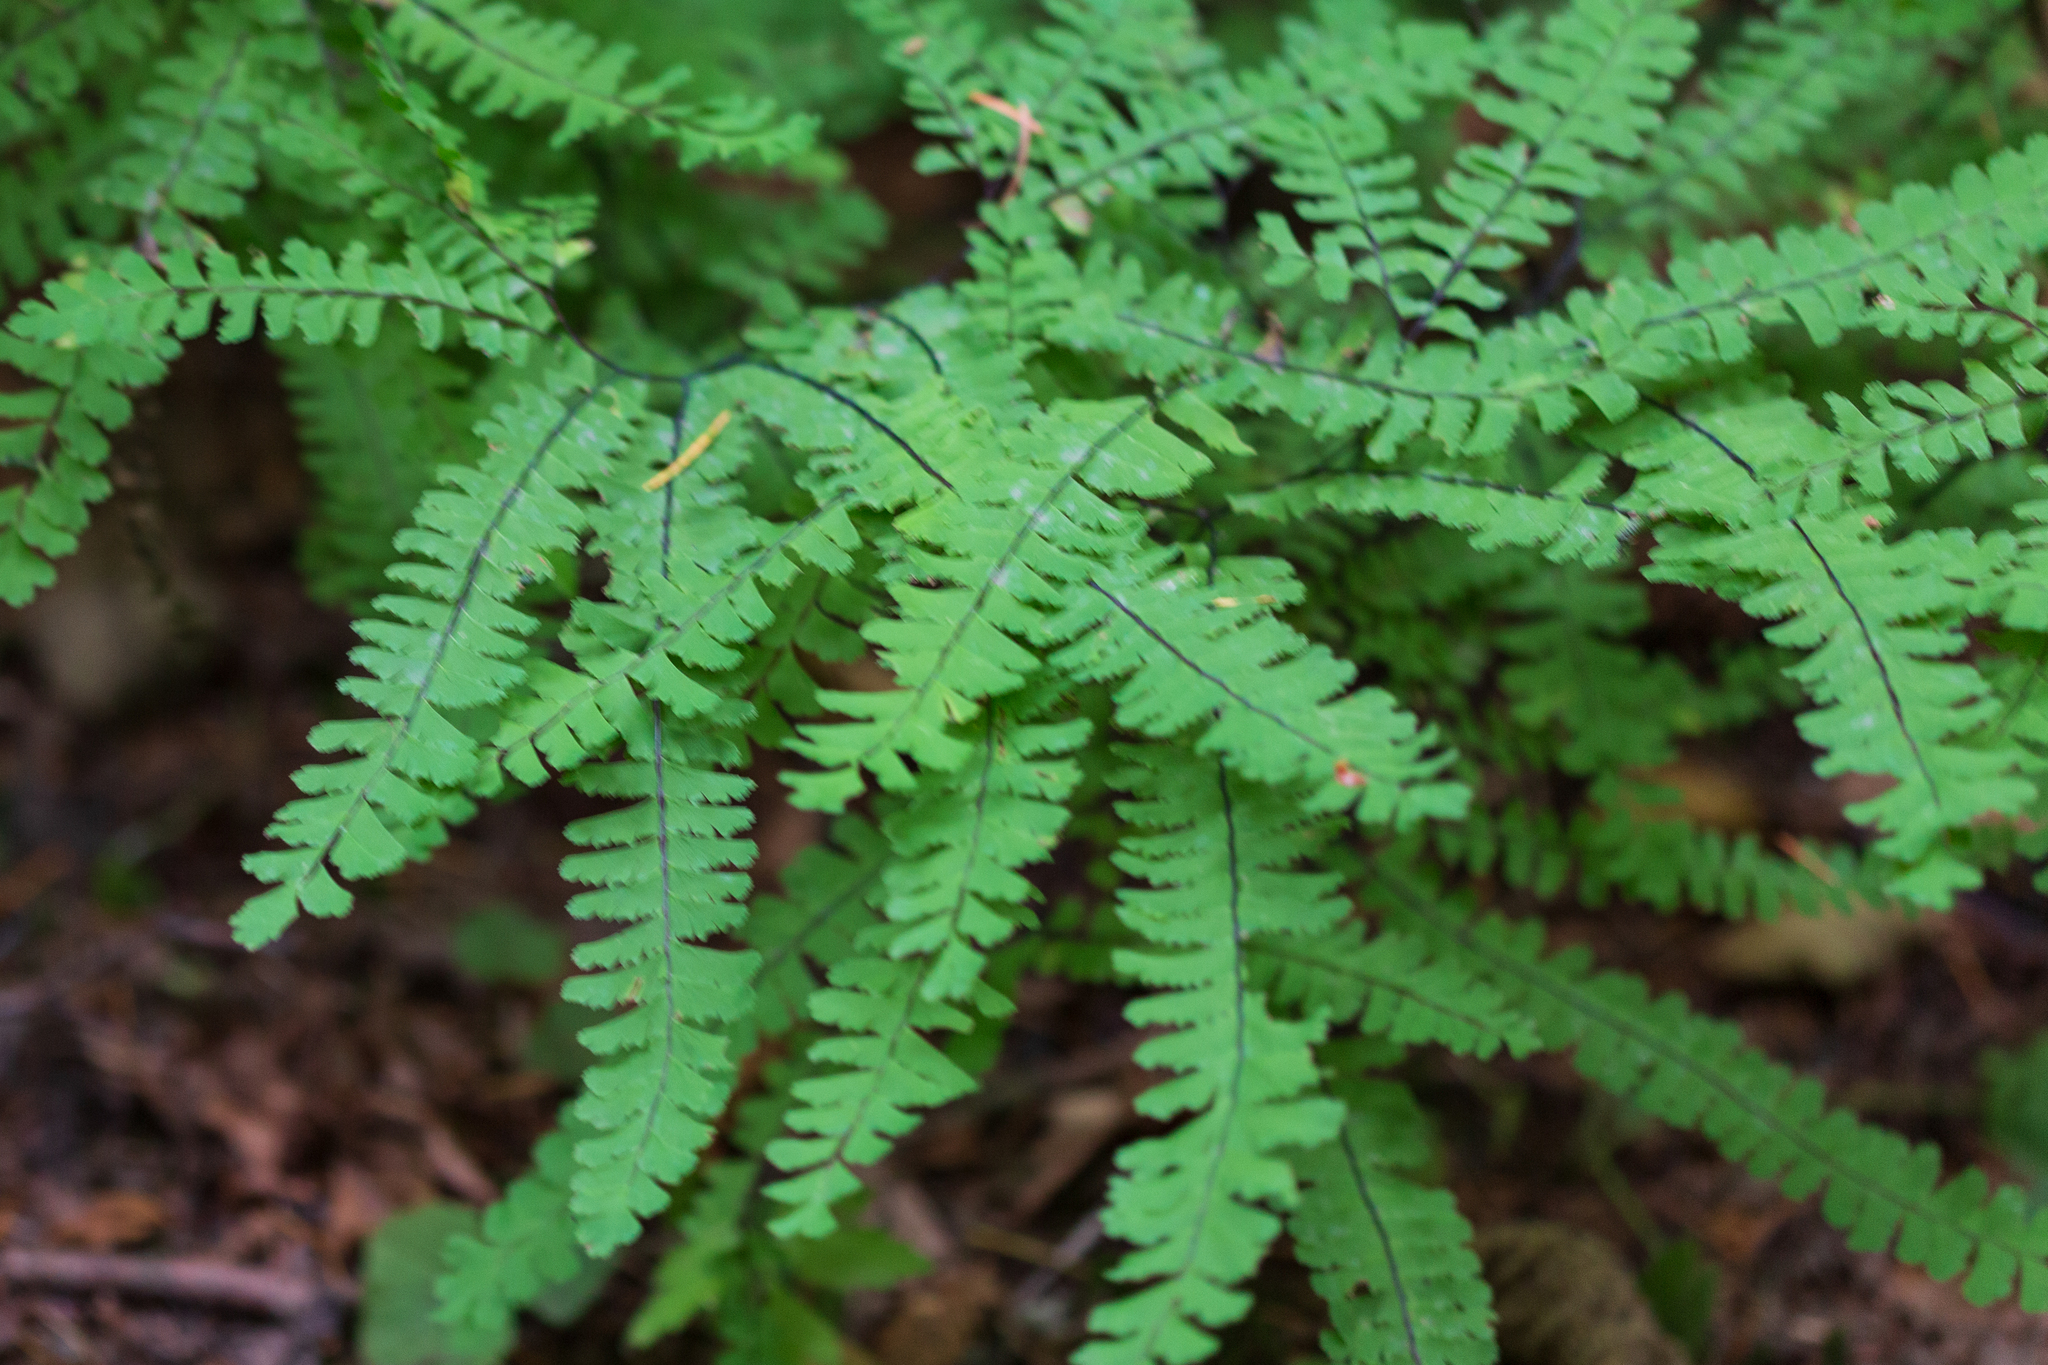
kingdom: Plantae
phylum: Tracheophyta
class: Polypodiopsida
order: Polypodiales
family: Pteridaceae
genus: Adiantum
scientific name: Adiantum aleuticum
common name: Aleutian maidenhair fern
